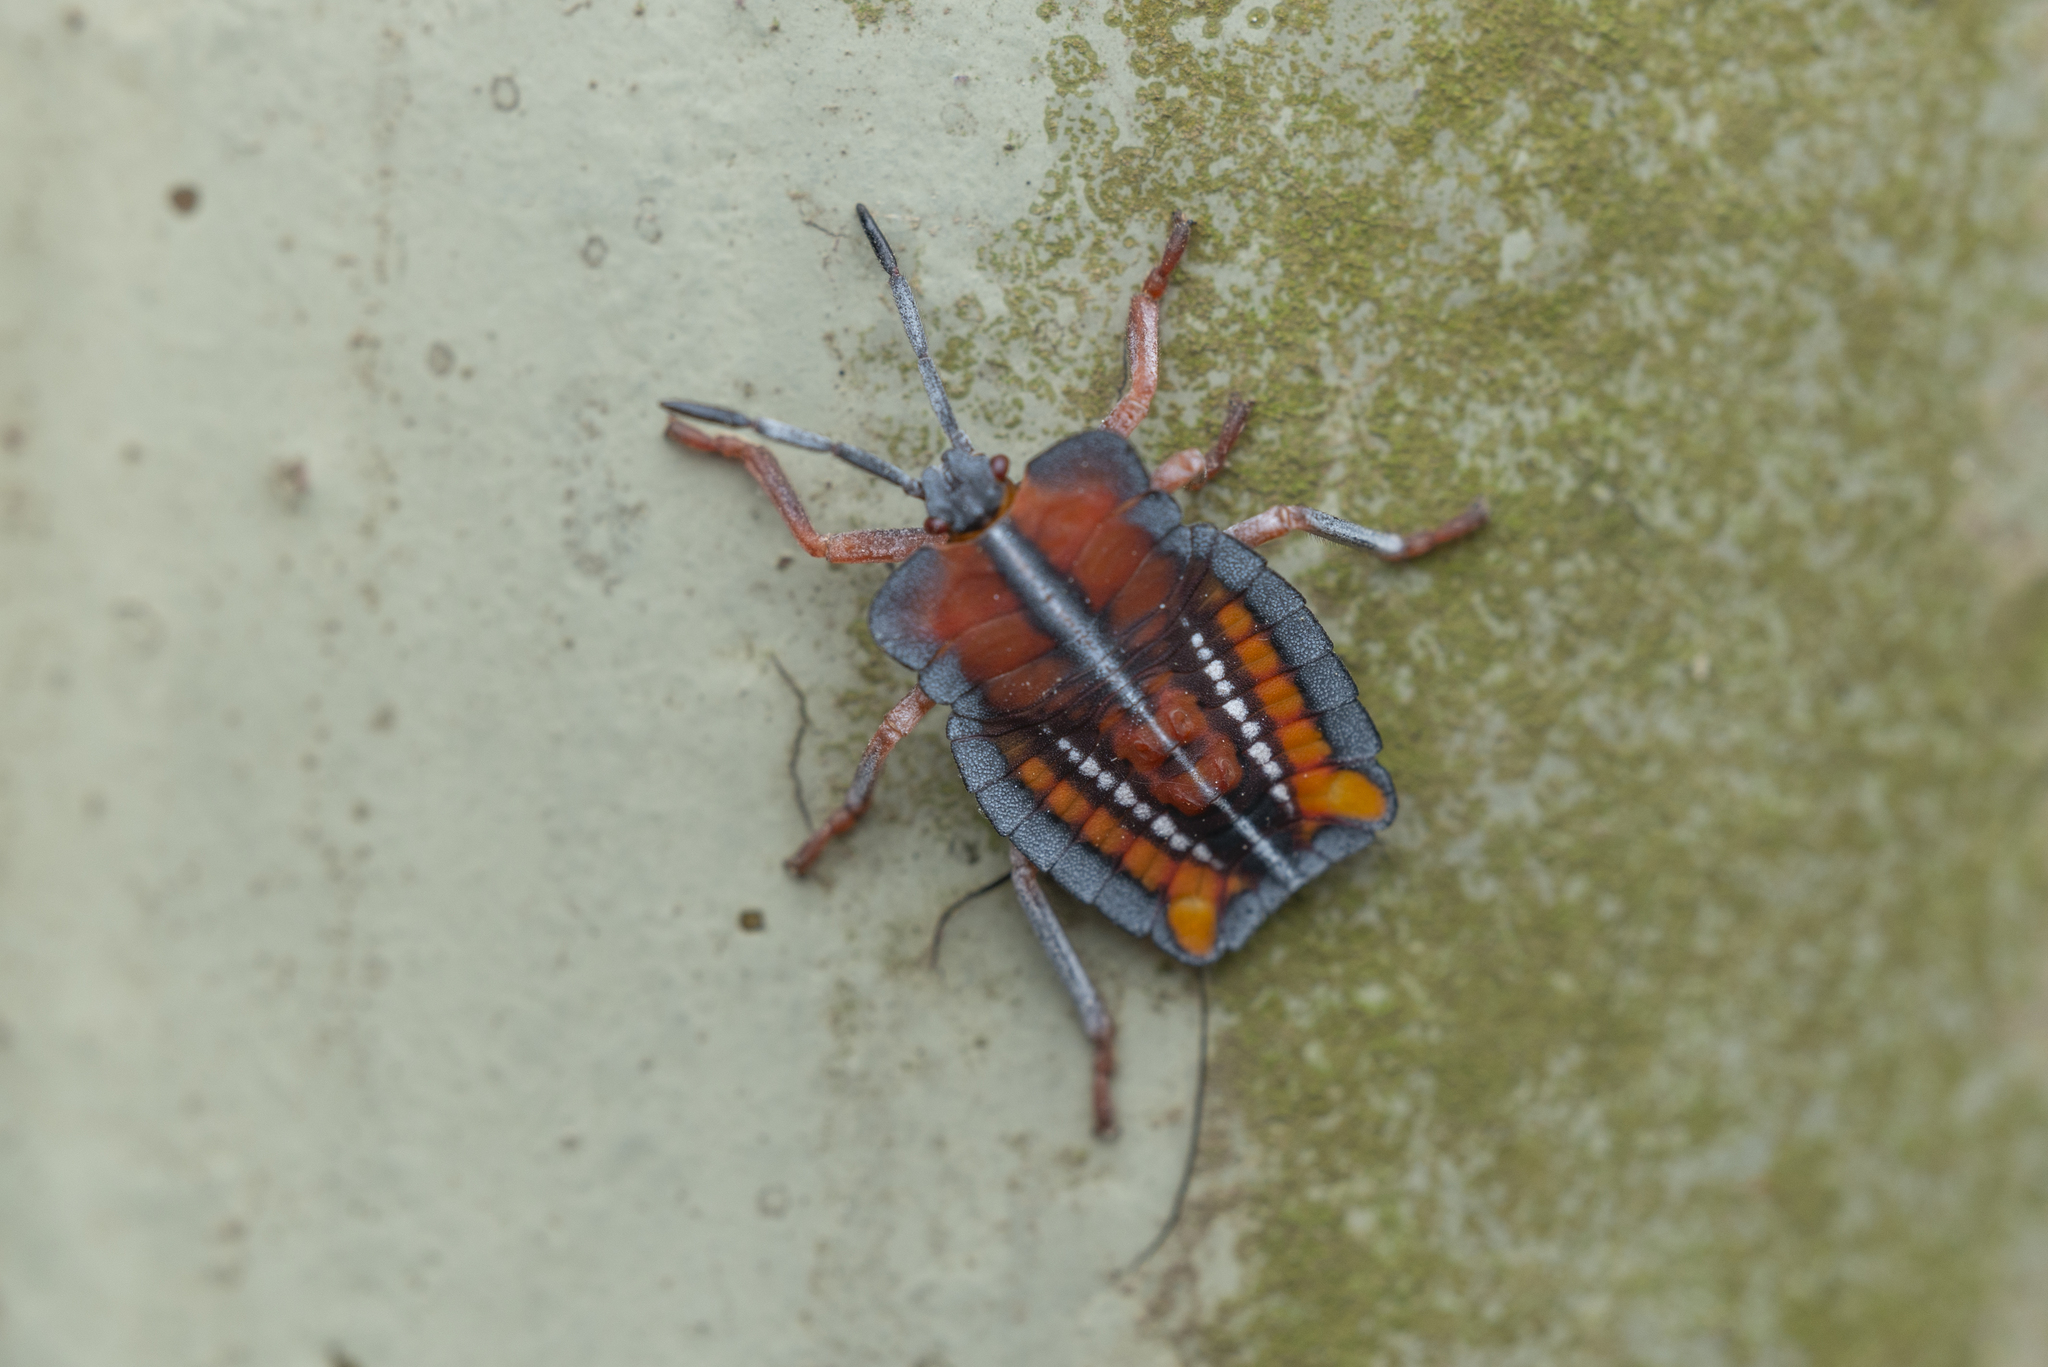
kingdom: Animalia
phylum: Arthropoda
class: Insecta
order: Hemiptera
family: Tessaratomidae
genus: Tessaratoma
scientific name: Tessaratoma papillosa
